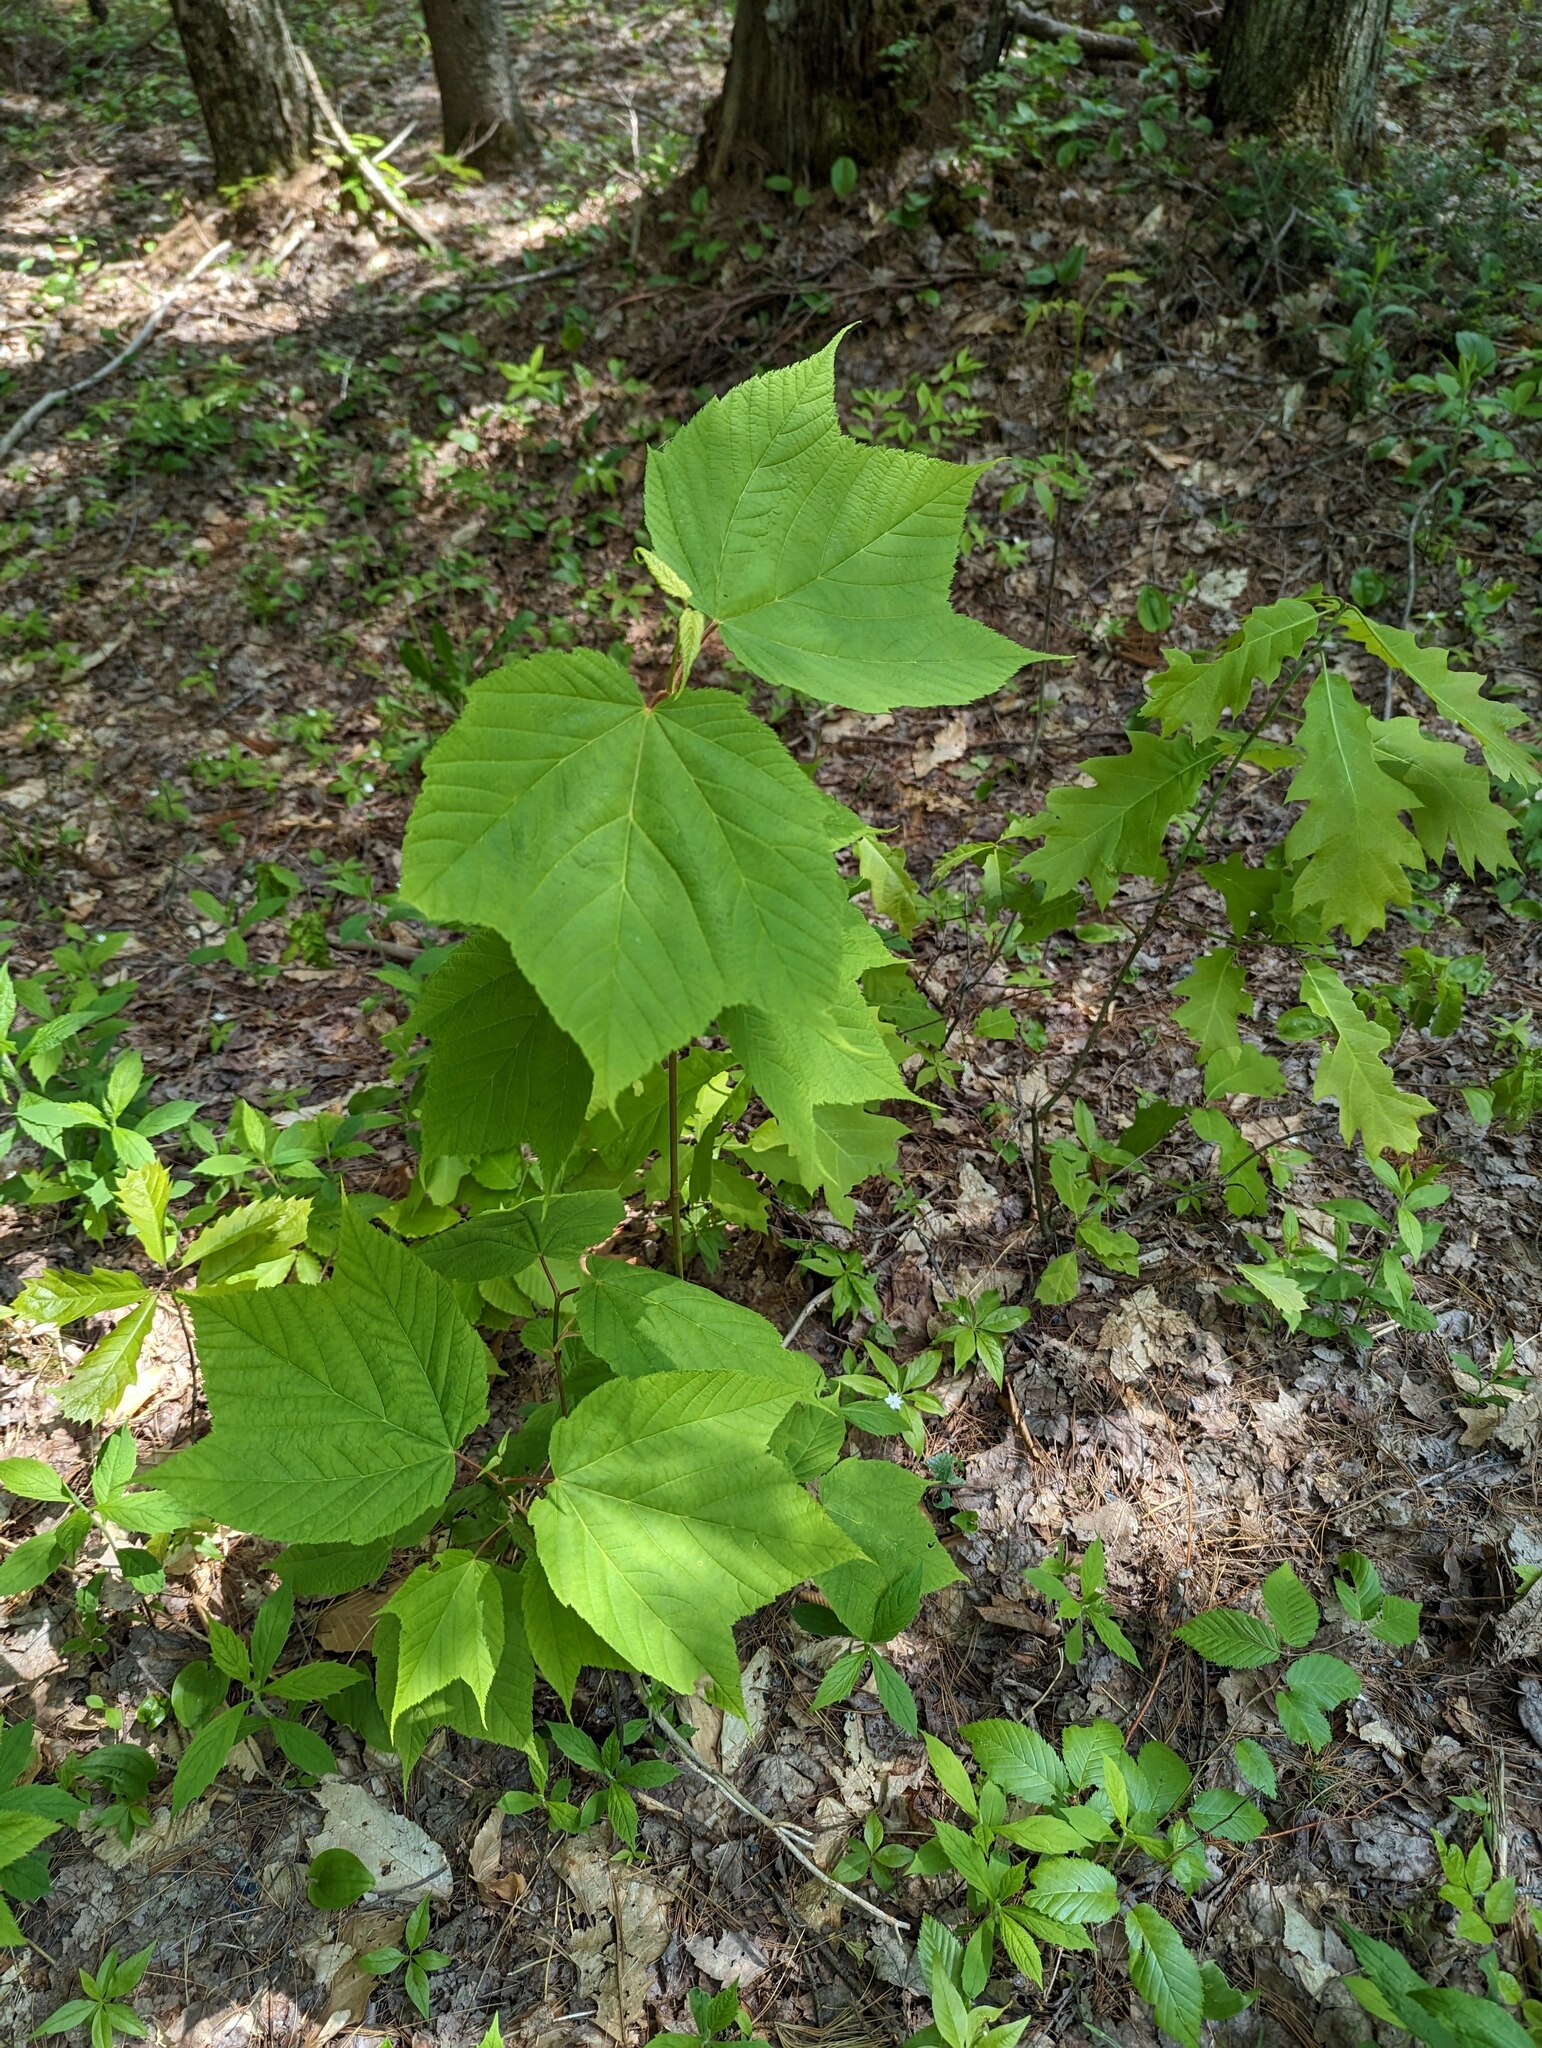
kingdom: Plantae
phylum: Tracheophyta
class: Magnoliopsida
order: Sapindales
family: Sapindaceae
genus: Acer
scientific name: Acer pensylvanicum
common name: Moosewood
